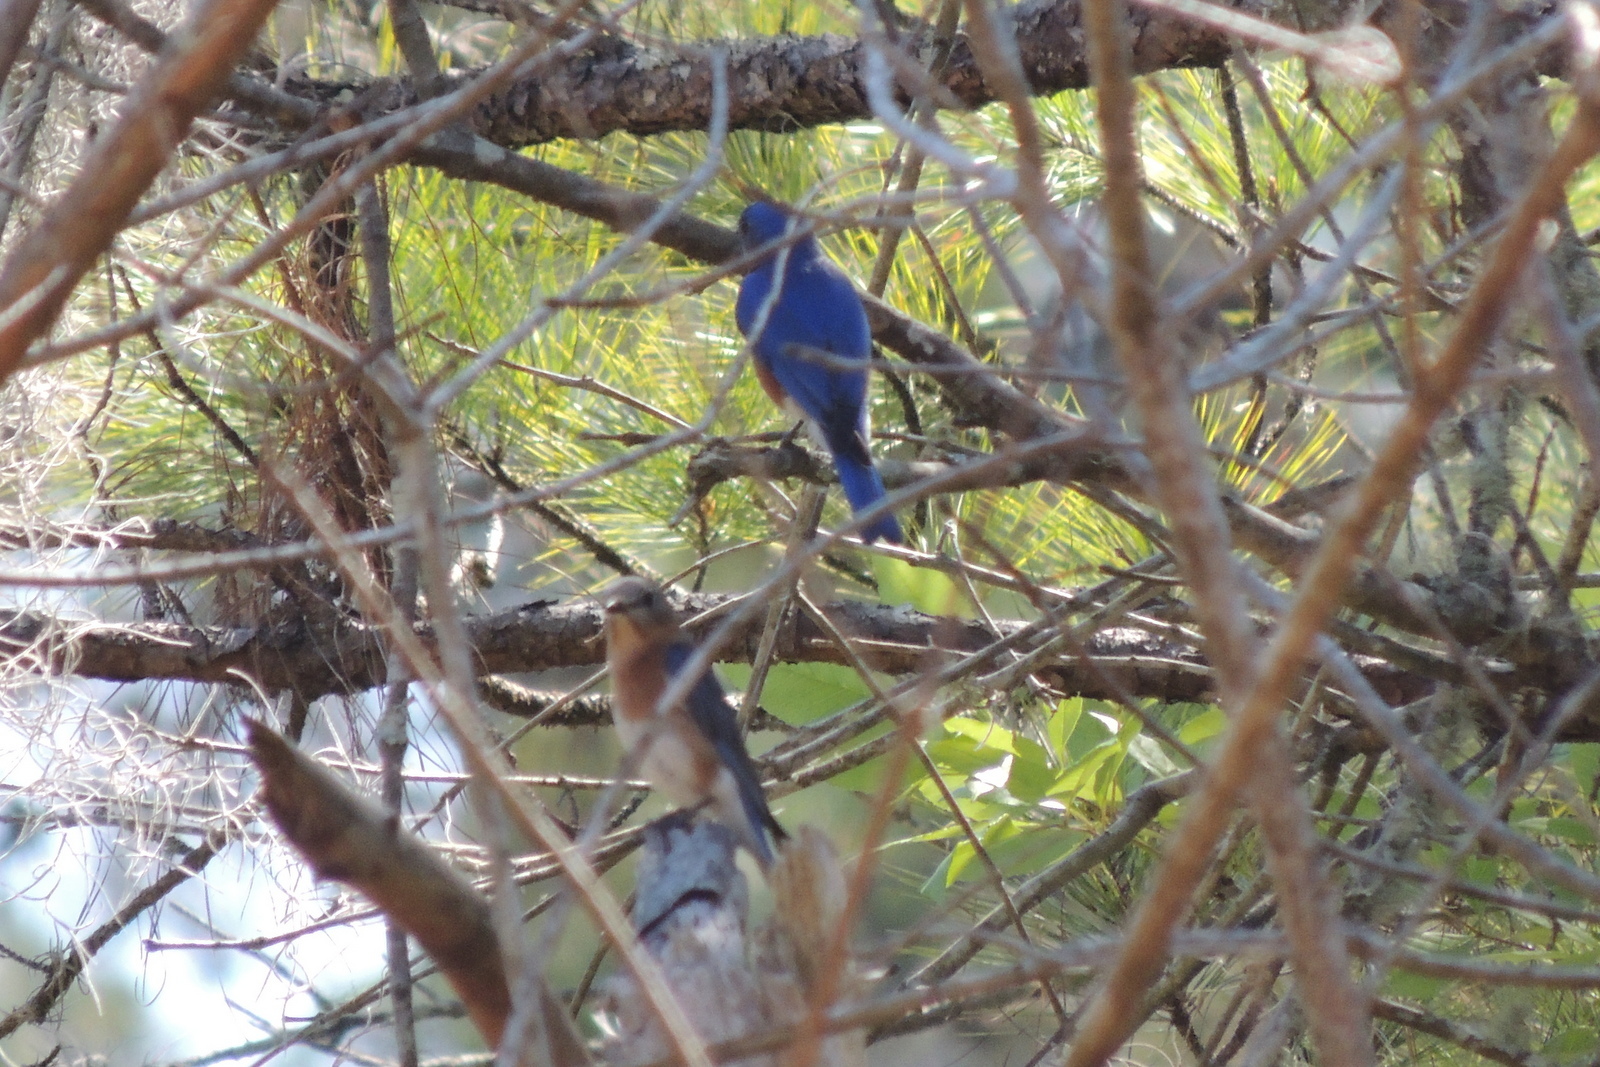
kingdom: Animalia
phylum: Chordata
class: Aves
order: Passeriformes
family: Turdidae
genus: Sialia
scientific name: Sialia sialis
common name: Eastern bluebird
